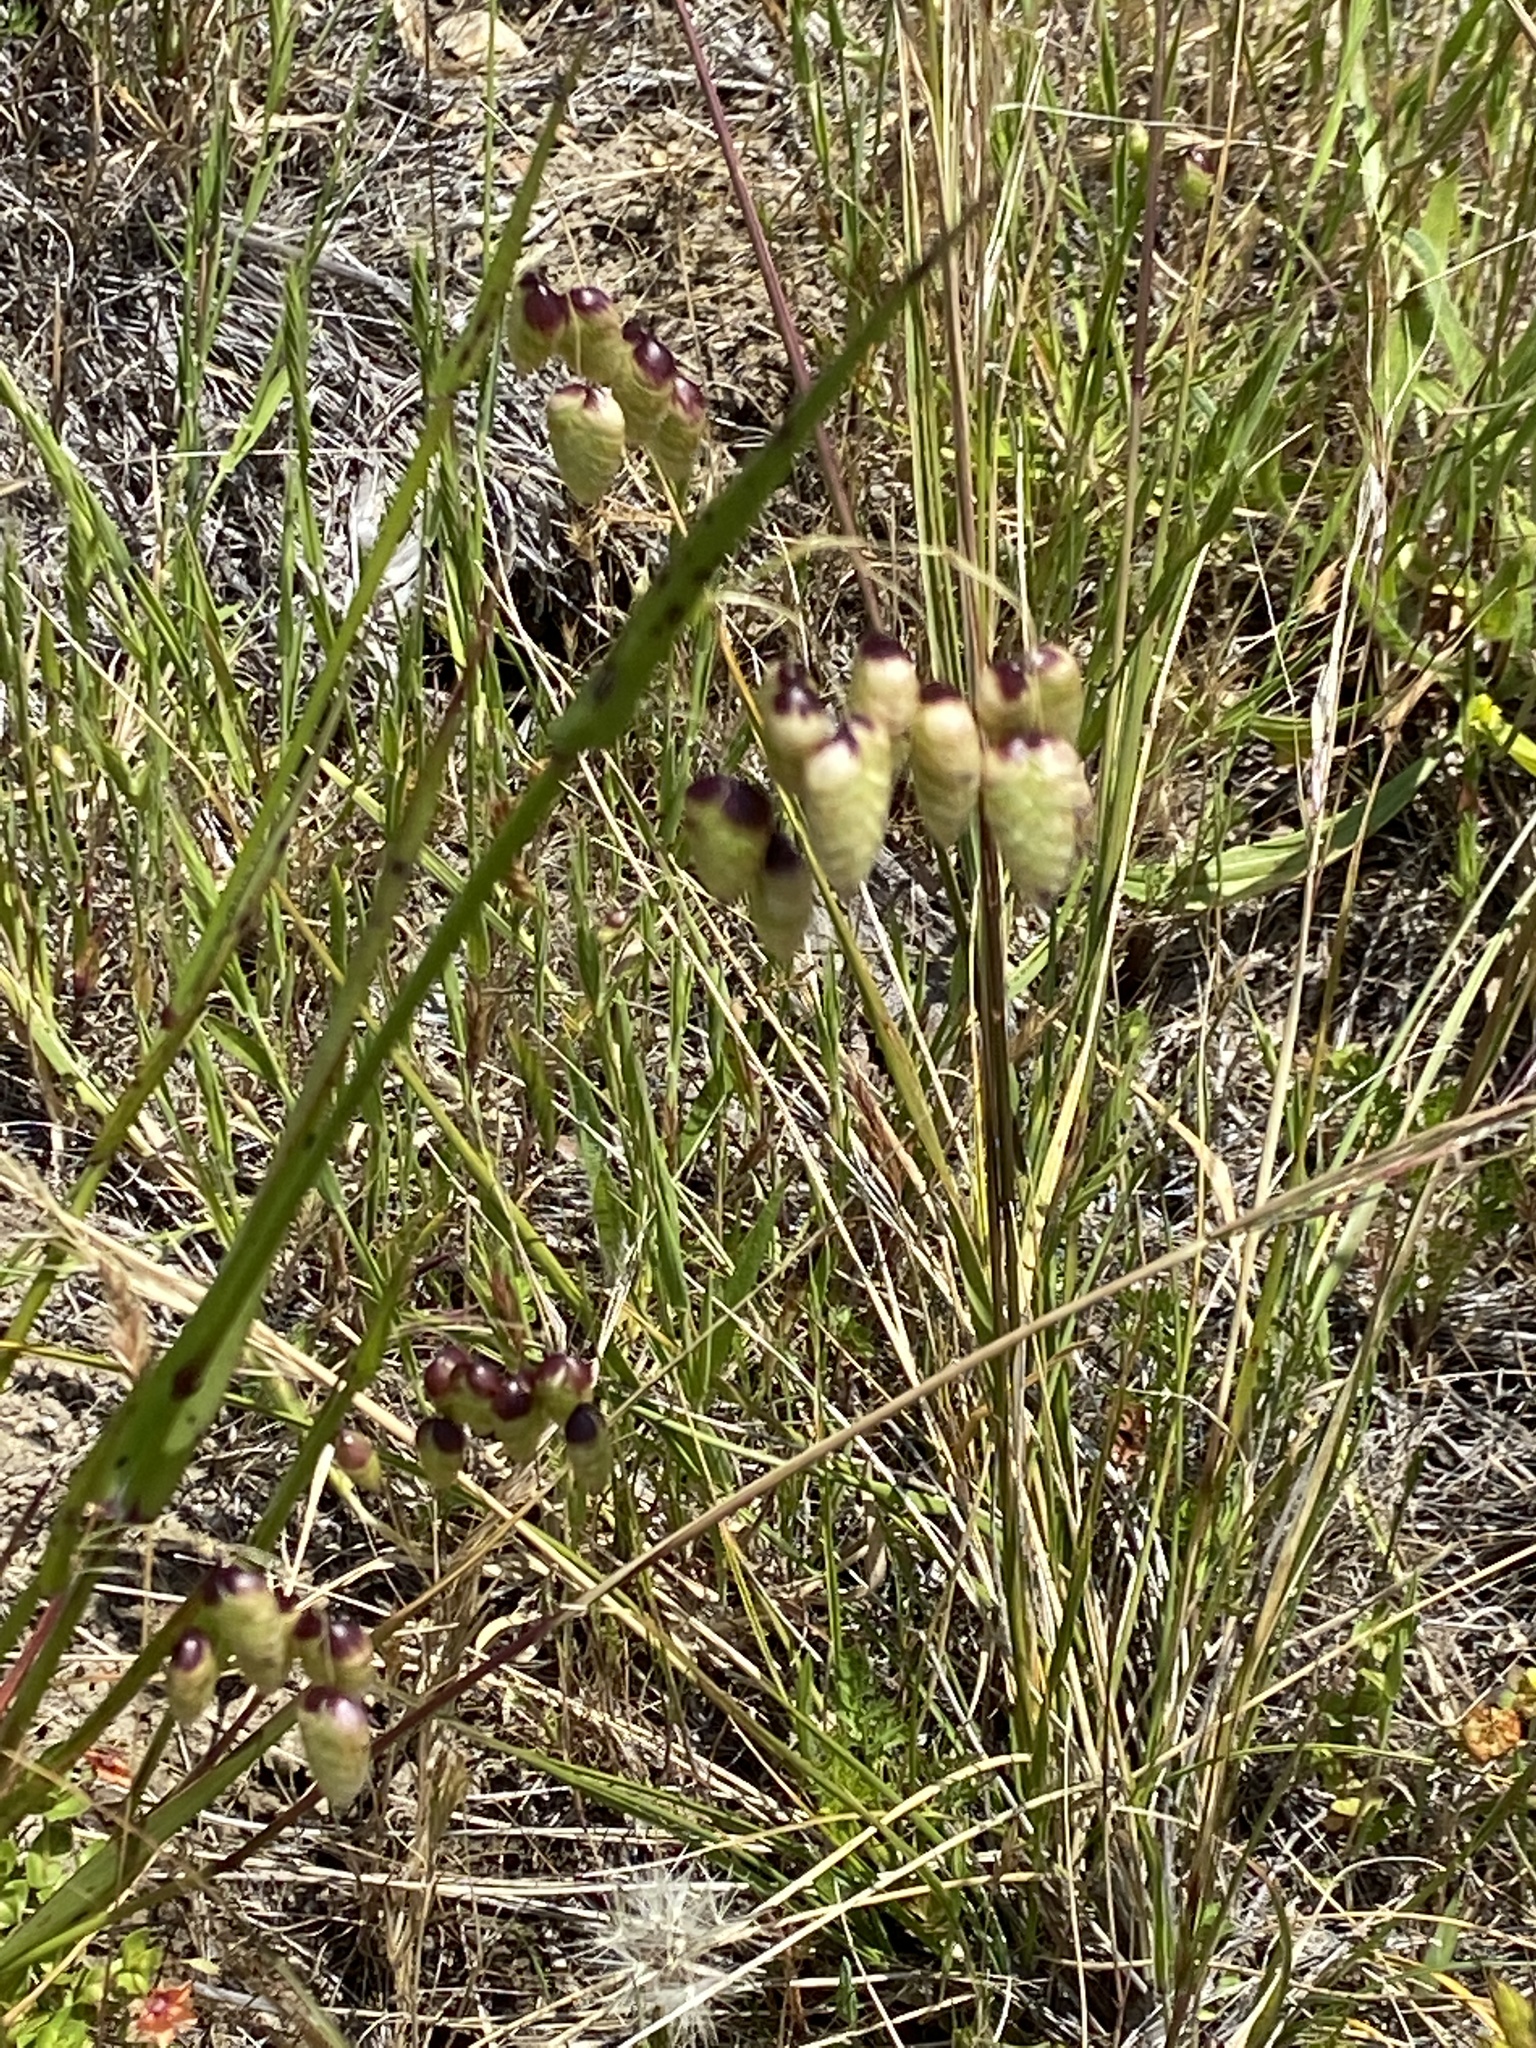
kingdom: Plantae
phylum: Tracheophyta
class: Liliopsida
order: Poales
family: Poaceae
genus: Briza
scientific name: Briza maxima
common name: Big quakinggrass
